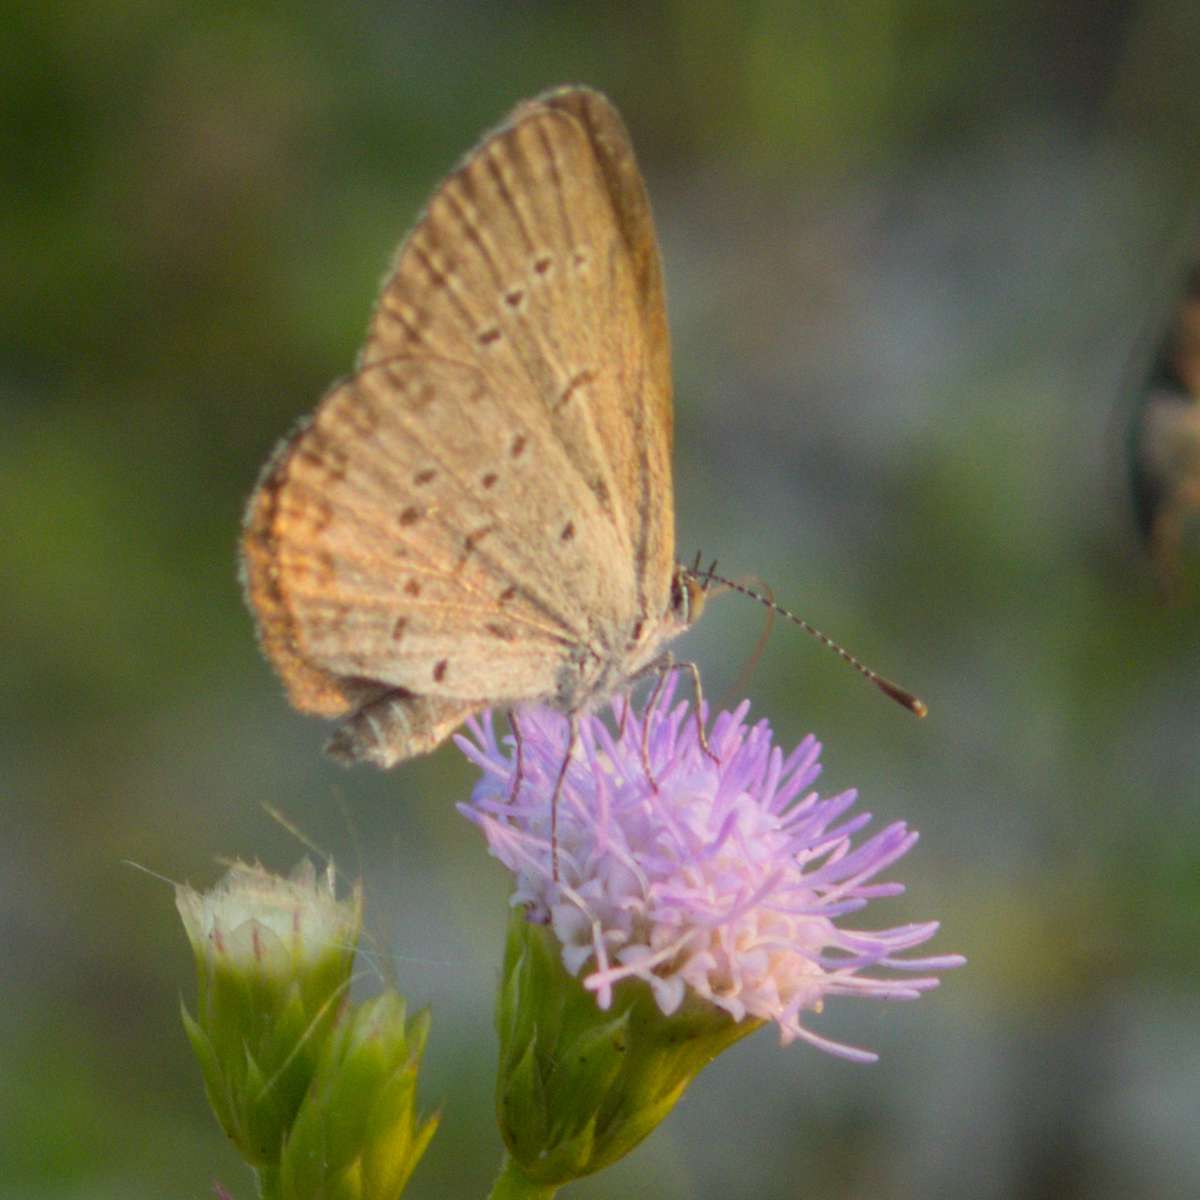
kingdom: Animalia
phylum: Arthropoda
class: Insecta
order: Lepidoptera
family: Lycaenidae
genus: Zizina
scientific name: Zizina otis
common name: Lesser grass blue
